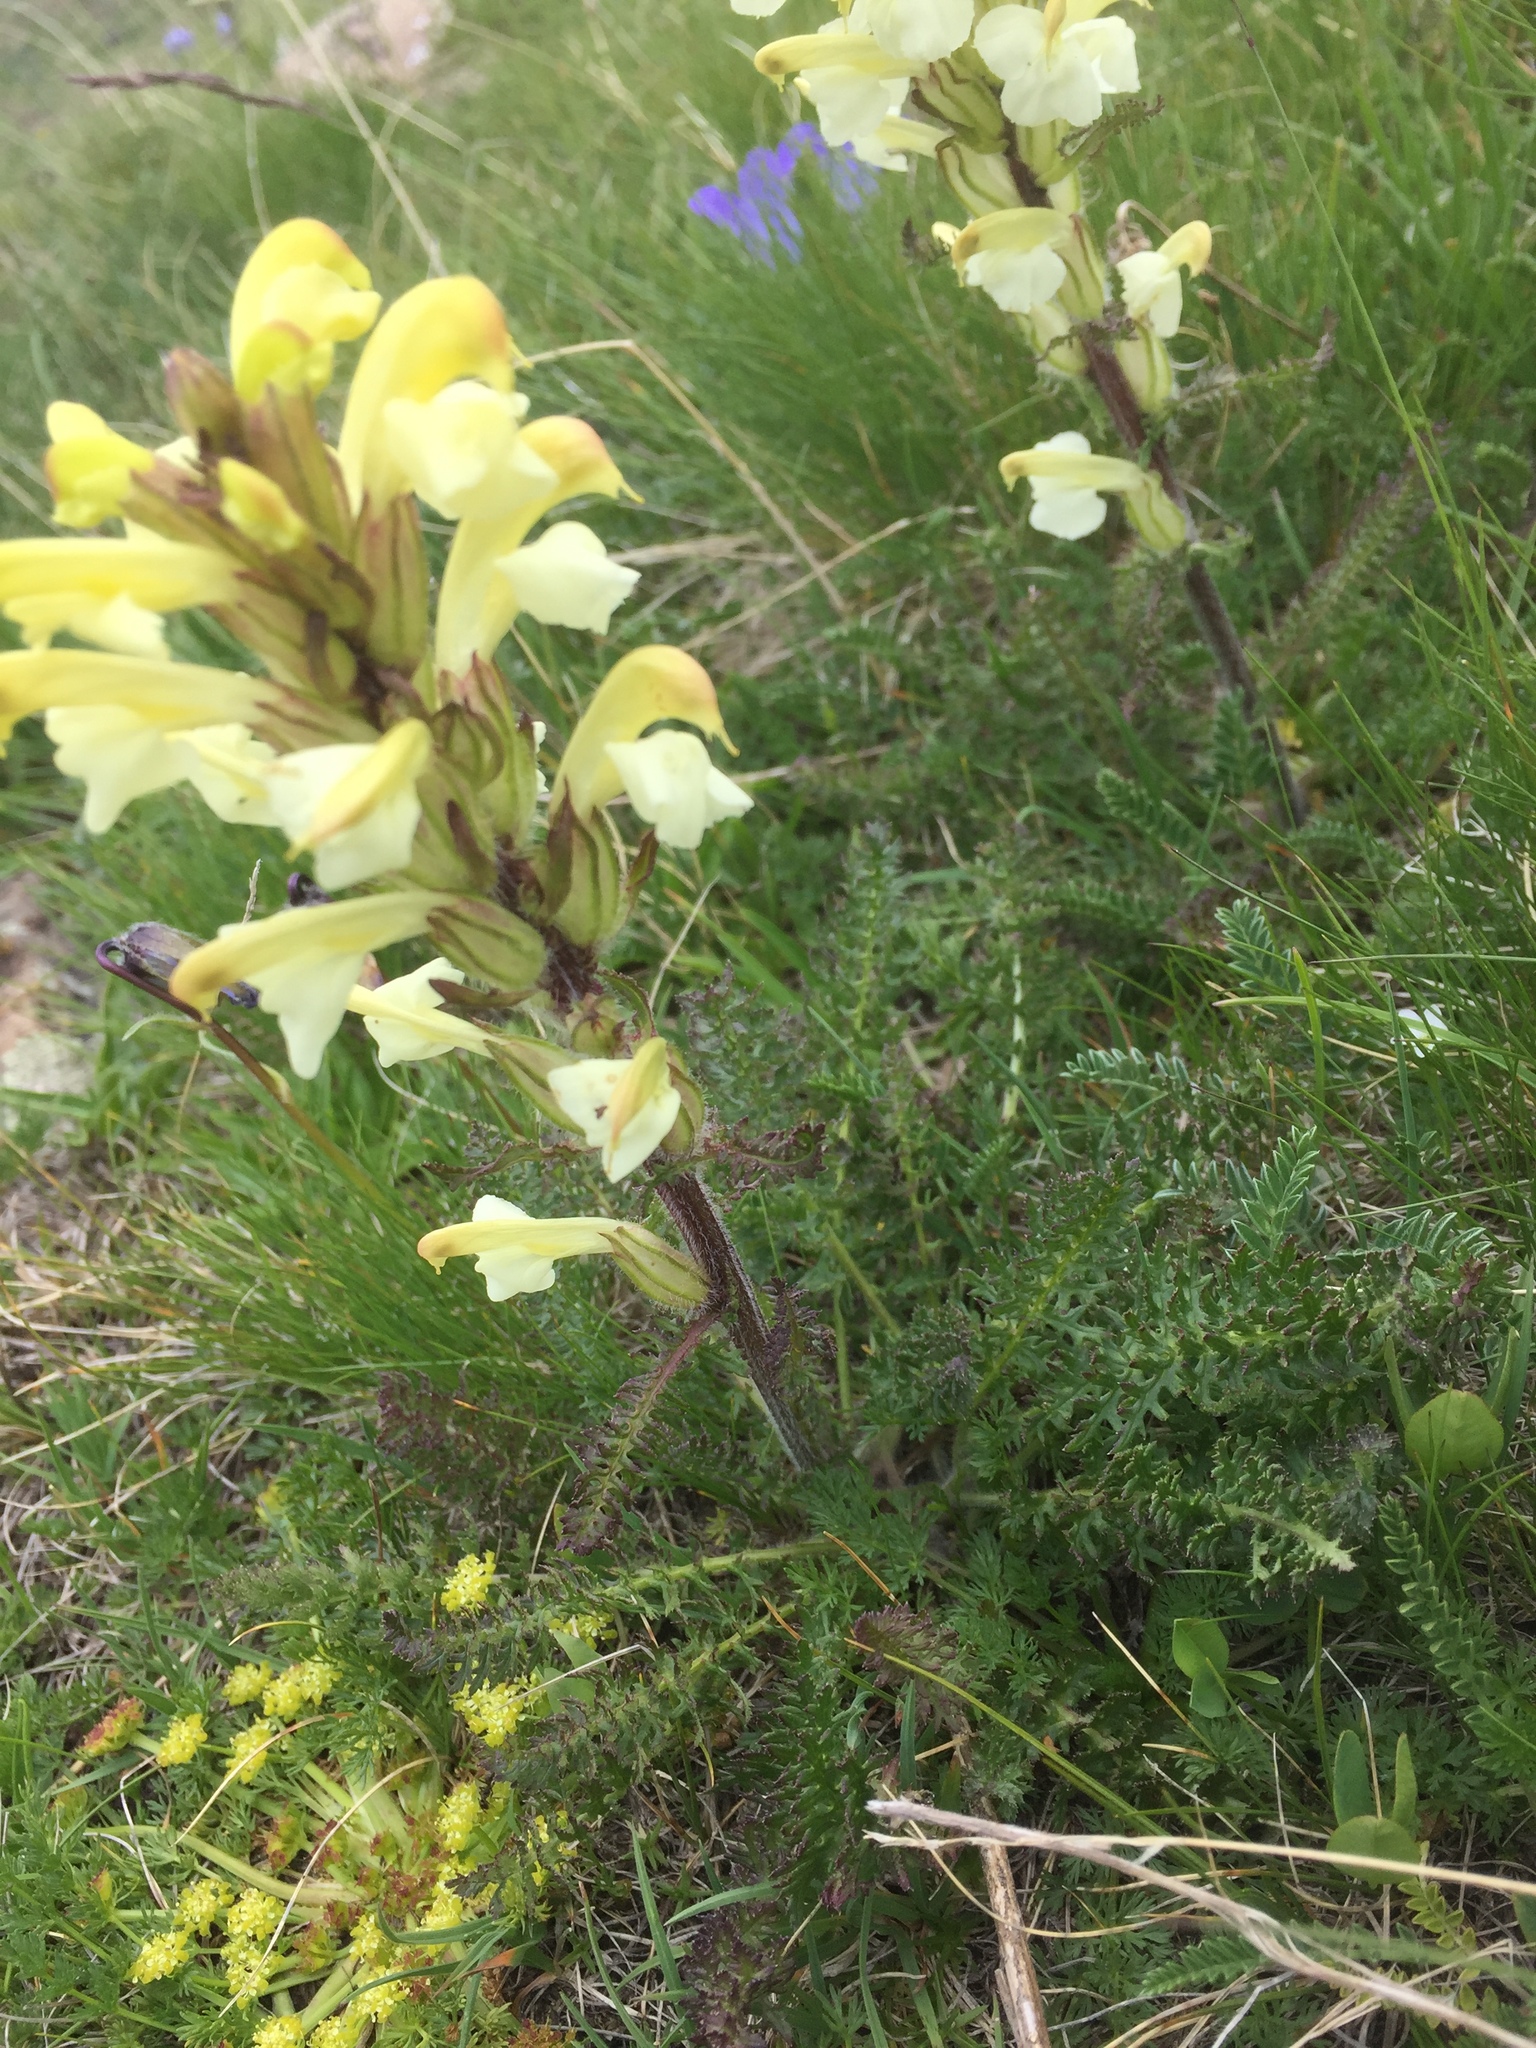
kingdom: Plantae
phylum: Tracheophyta
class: Magnoliopsida
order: Lamiales
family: Orobanchaceae
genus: Pedicularis
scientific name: Pedicularis sibthorpii
